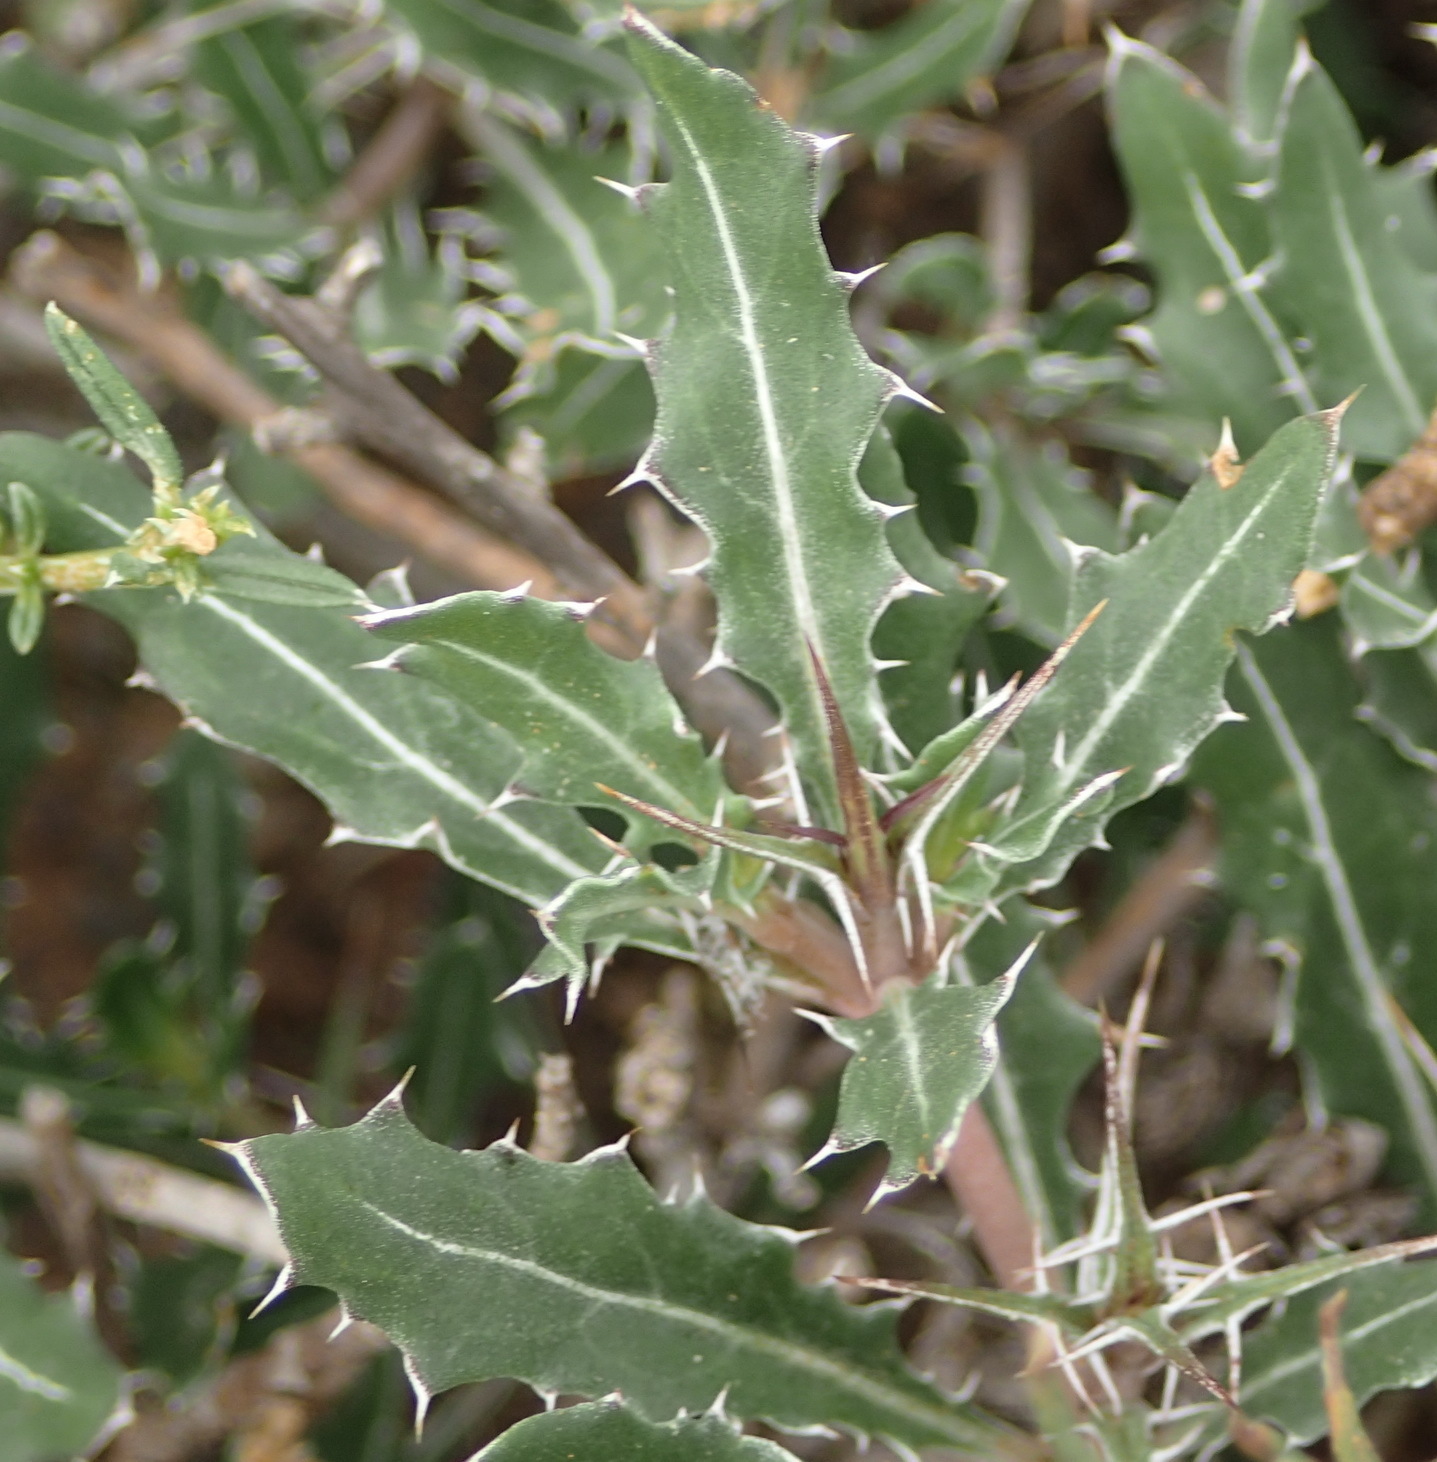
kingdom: Plantae
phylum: Tracheophyta
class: Magnoliopsida
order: Lamiales
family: Acanthaceae
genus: Blepharis
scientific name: Blepharis capensis
